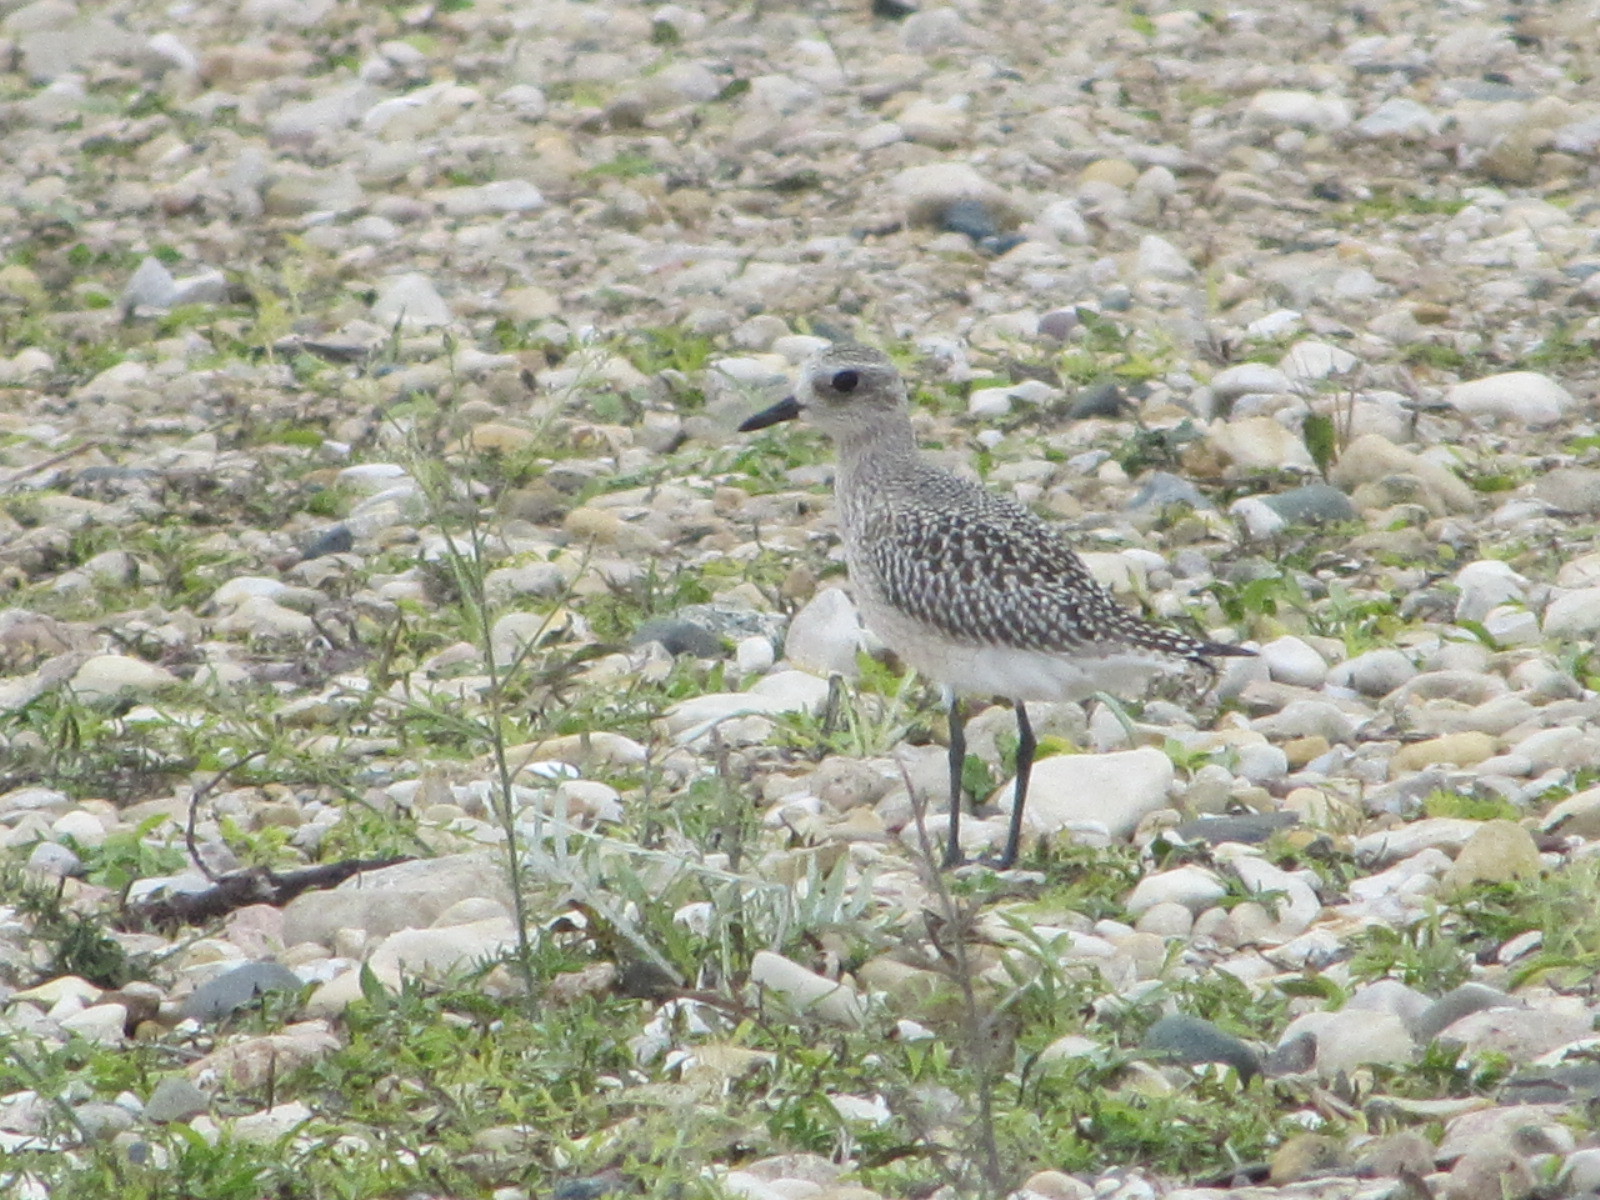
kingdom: Animalia
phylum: Chordata
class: Aves
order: Charadriiformes
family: Charadriidae
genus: Pluvialis
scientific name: Pluvialis squatarola
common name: Grey plover
